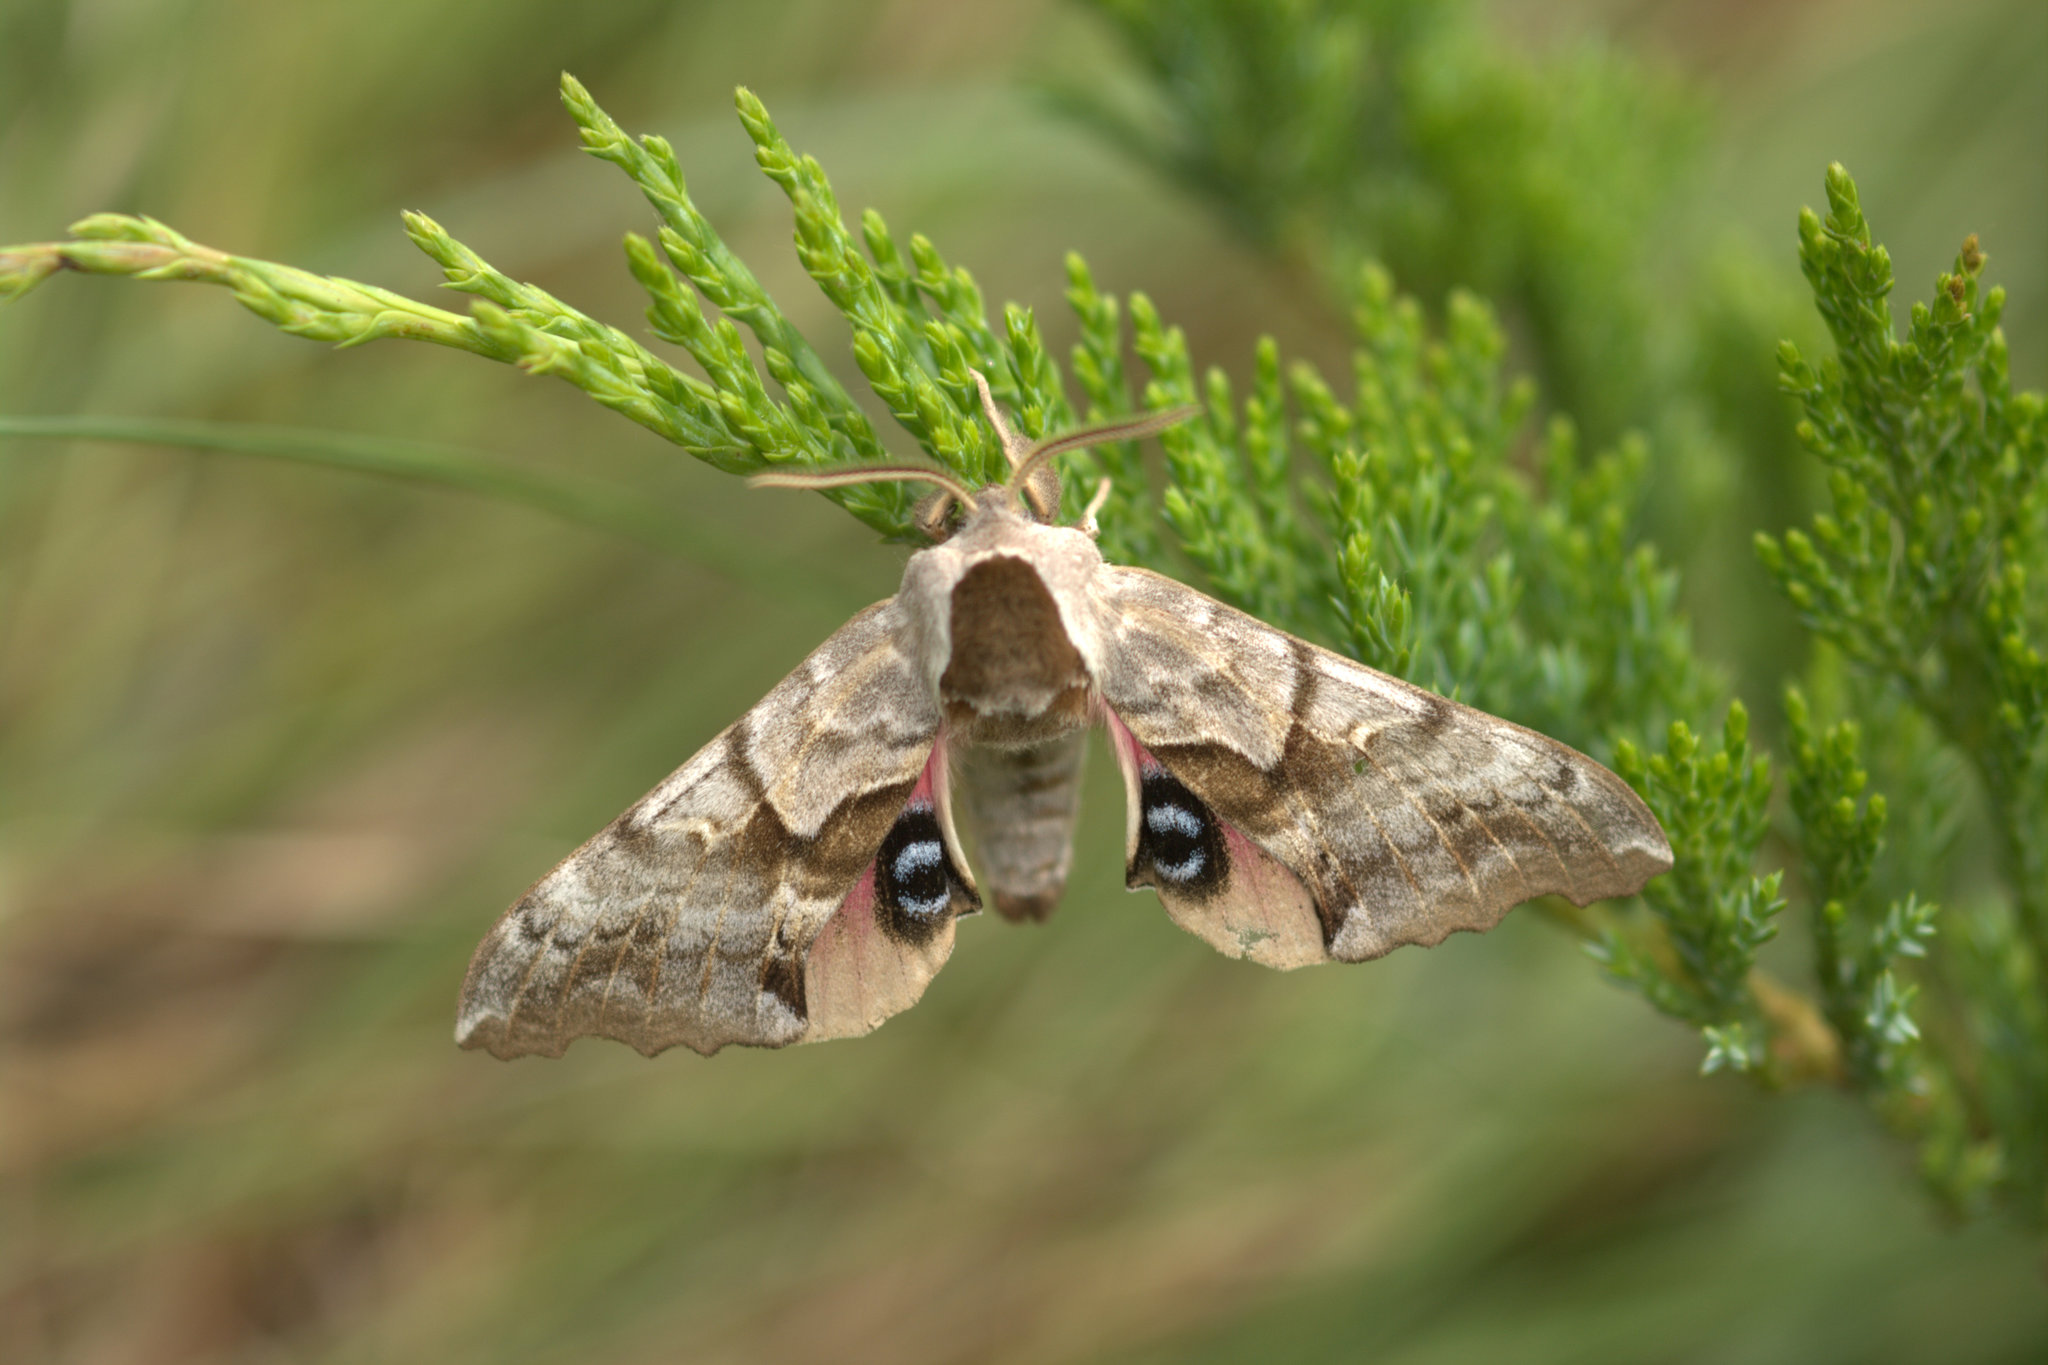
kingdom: Animalia
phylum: Arthropoda
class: Insecta
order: Lepidoptera
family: Sphingidae
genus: Smerinthus
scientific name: Smerinthus cerisyi
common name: Cerisy's sphinx moth
